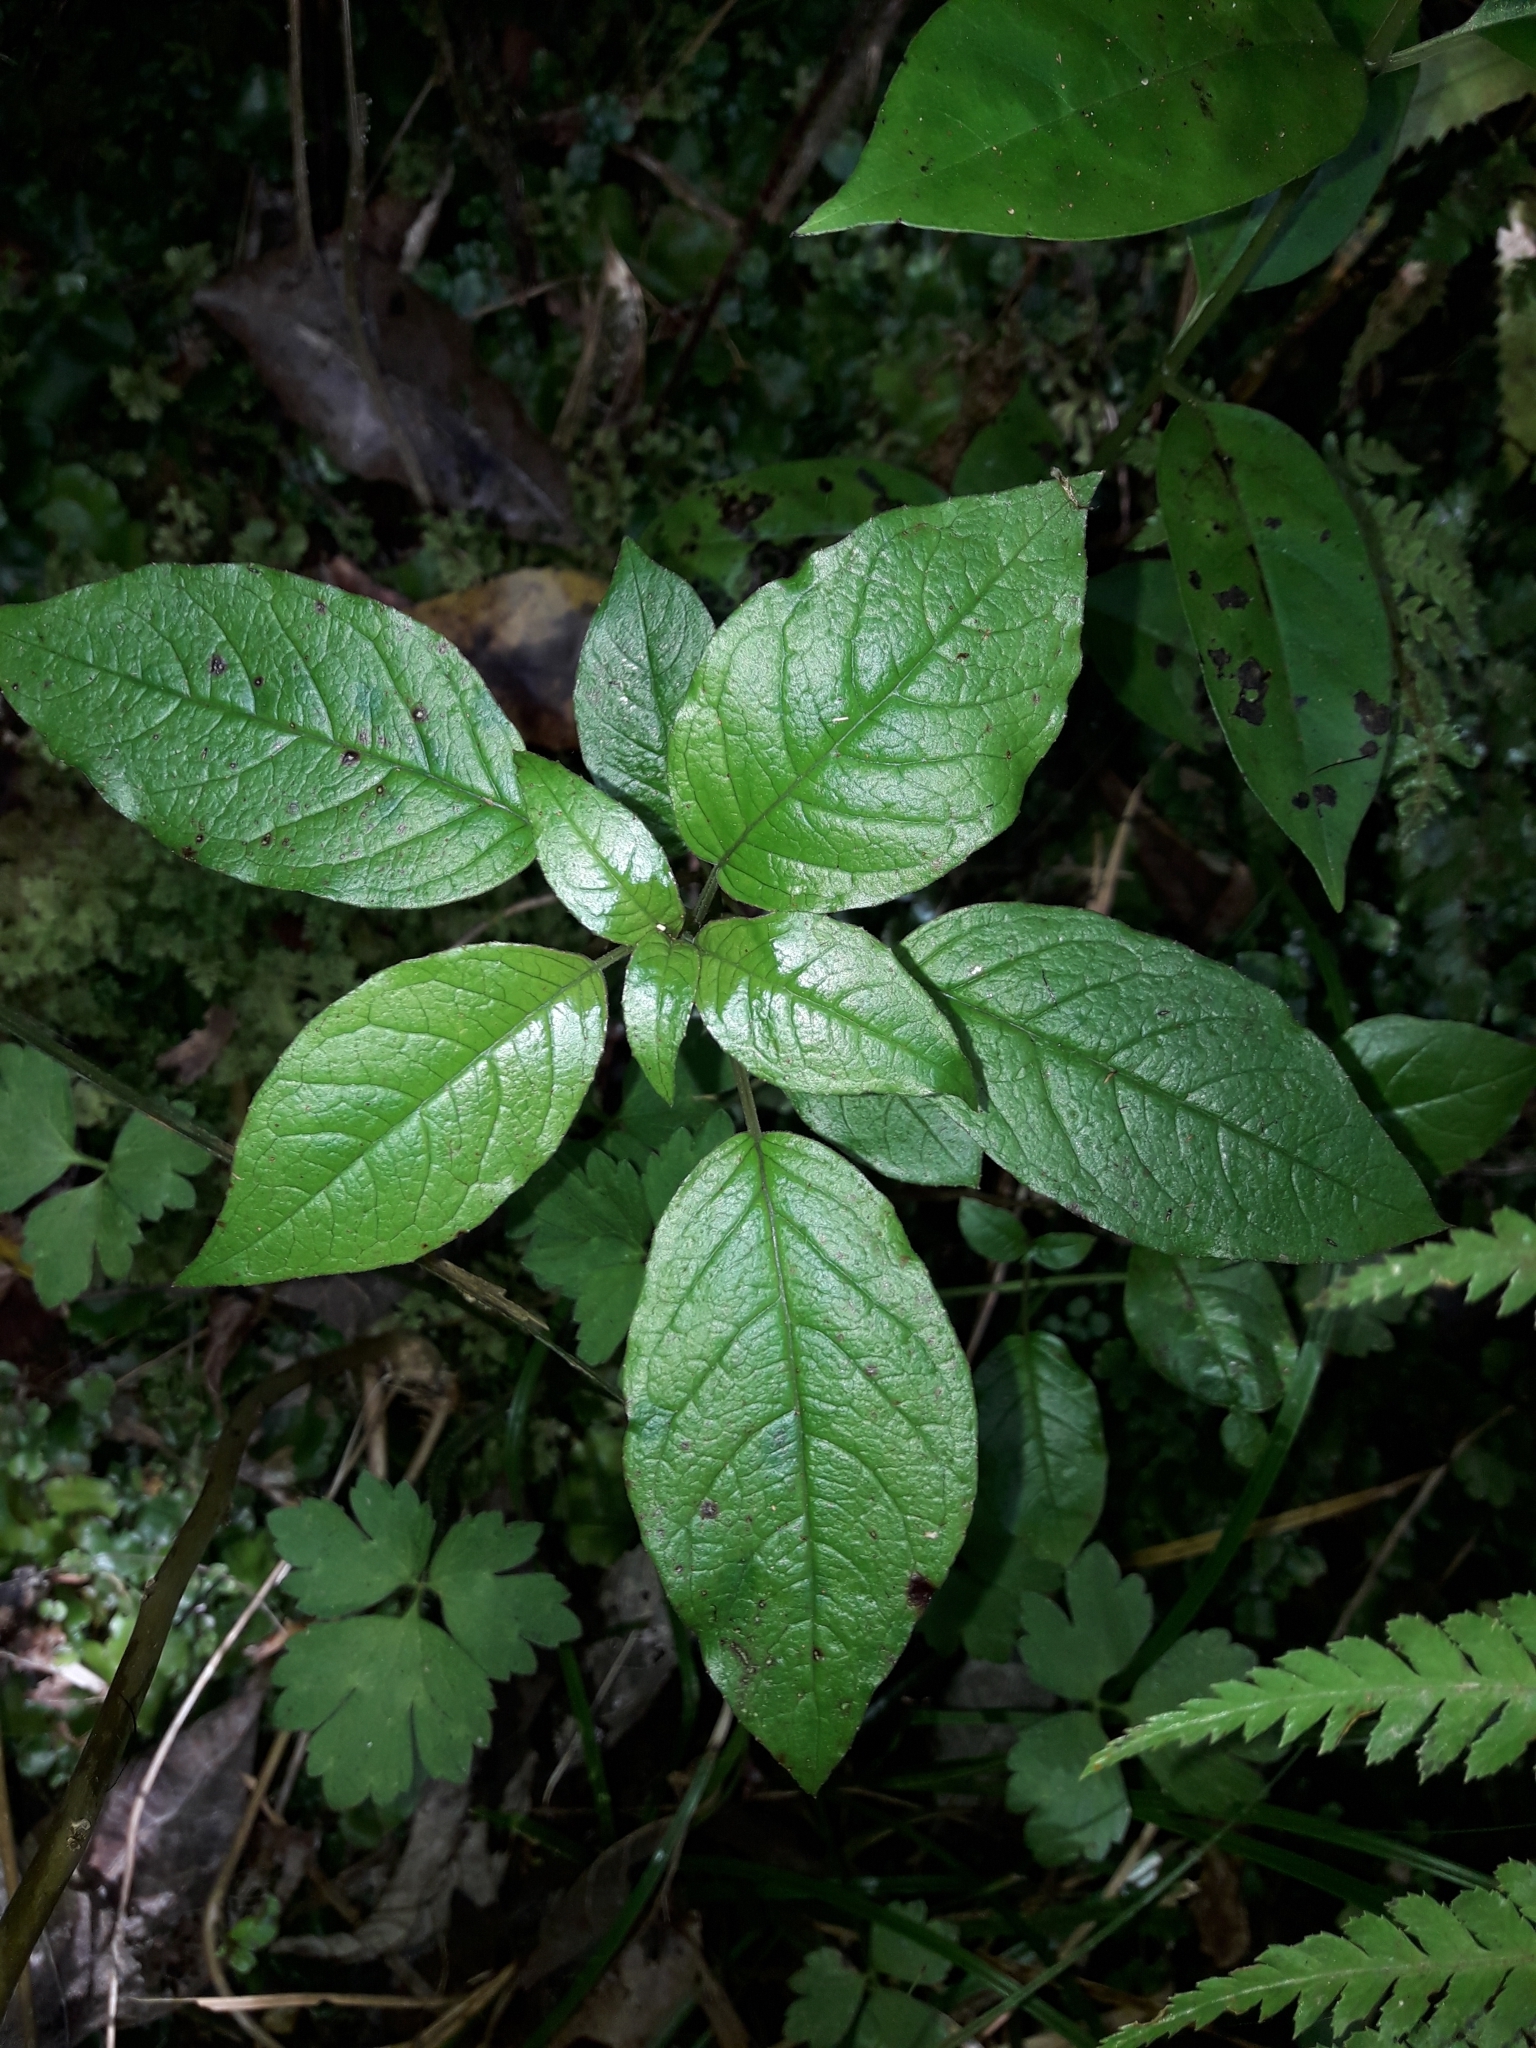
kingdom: Plantae
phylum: Tracheophyta
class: Magnoliopsida
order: Myrtales
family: Onagraceae
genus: Fuchsia
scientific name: Fuchsia excorticata
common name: Tree fuchsia
